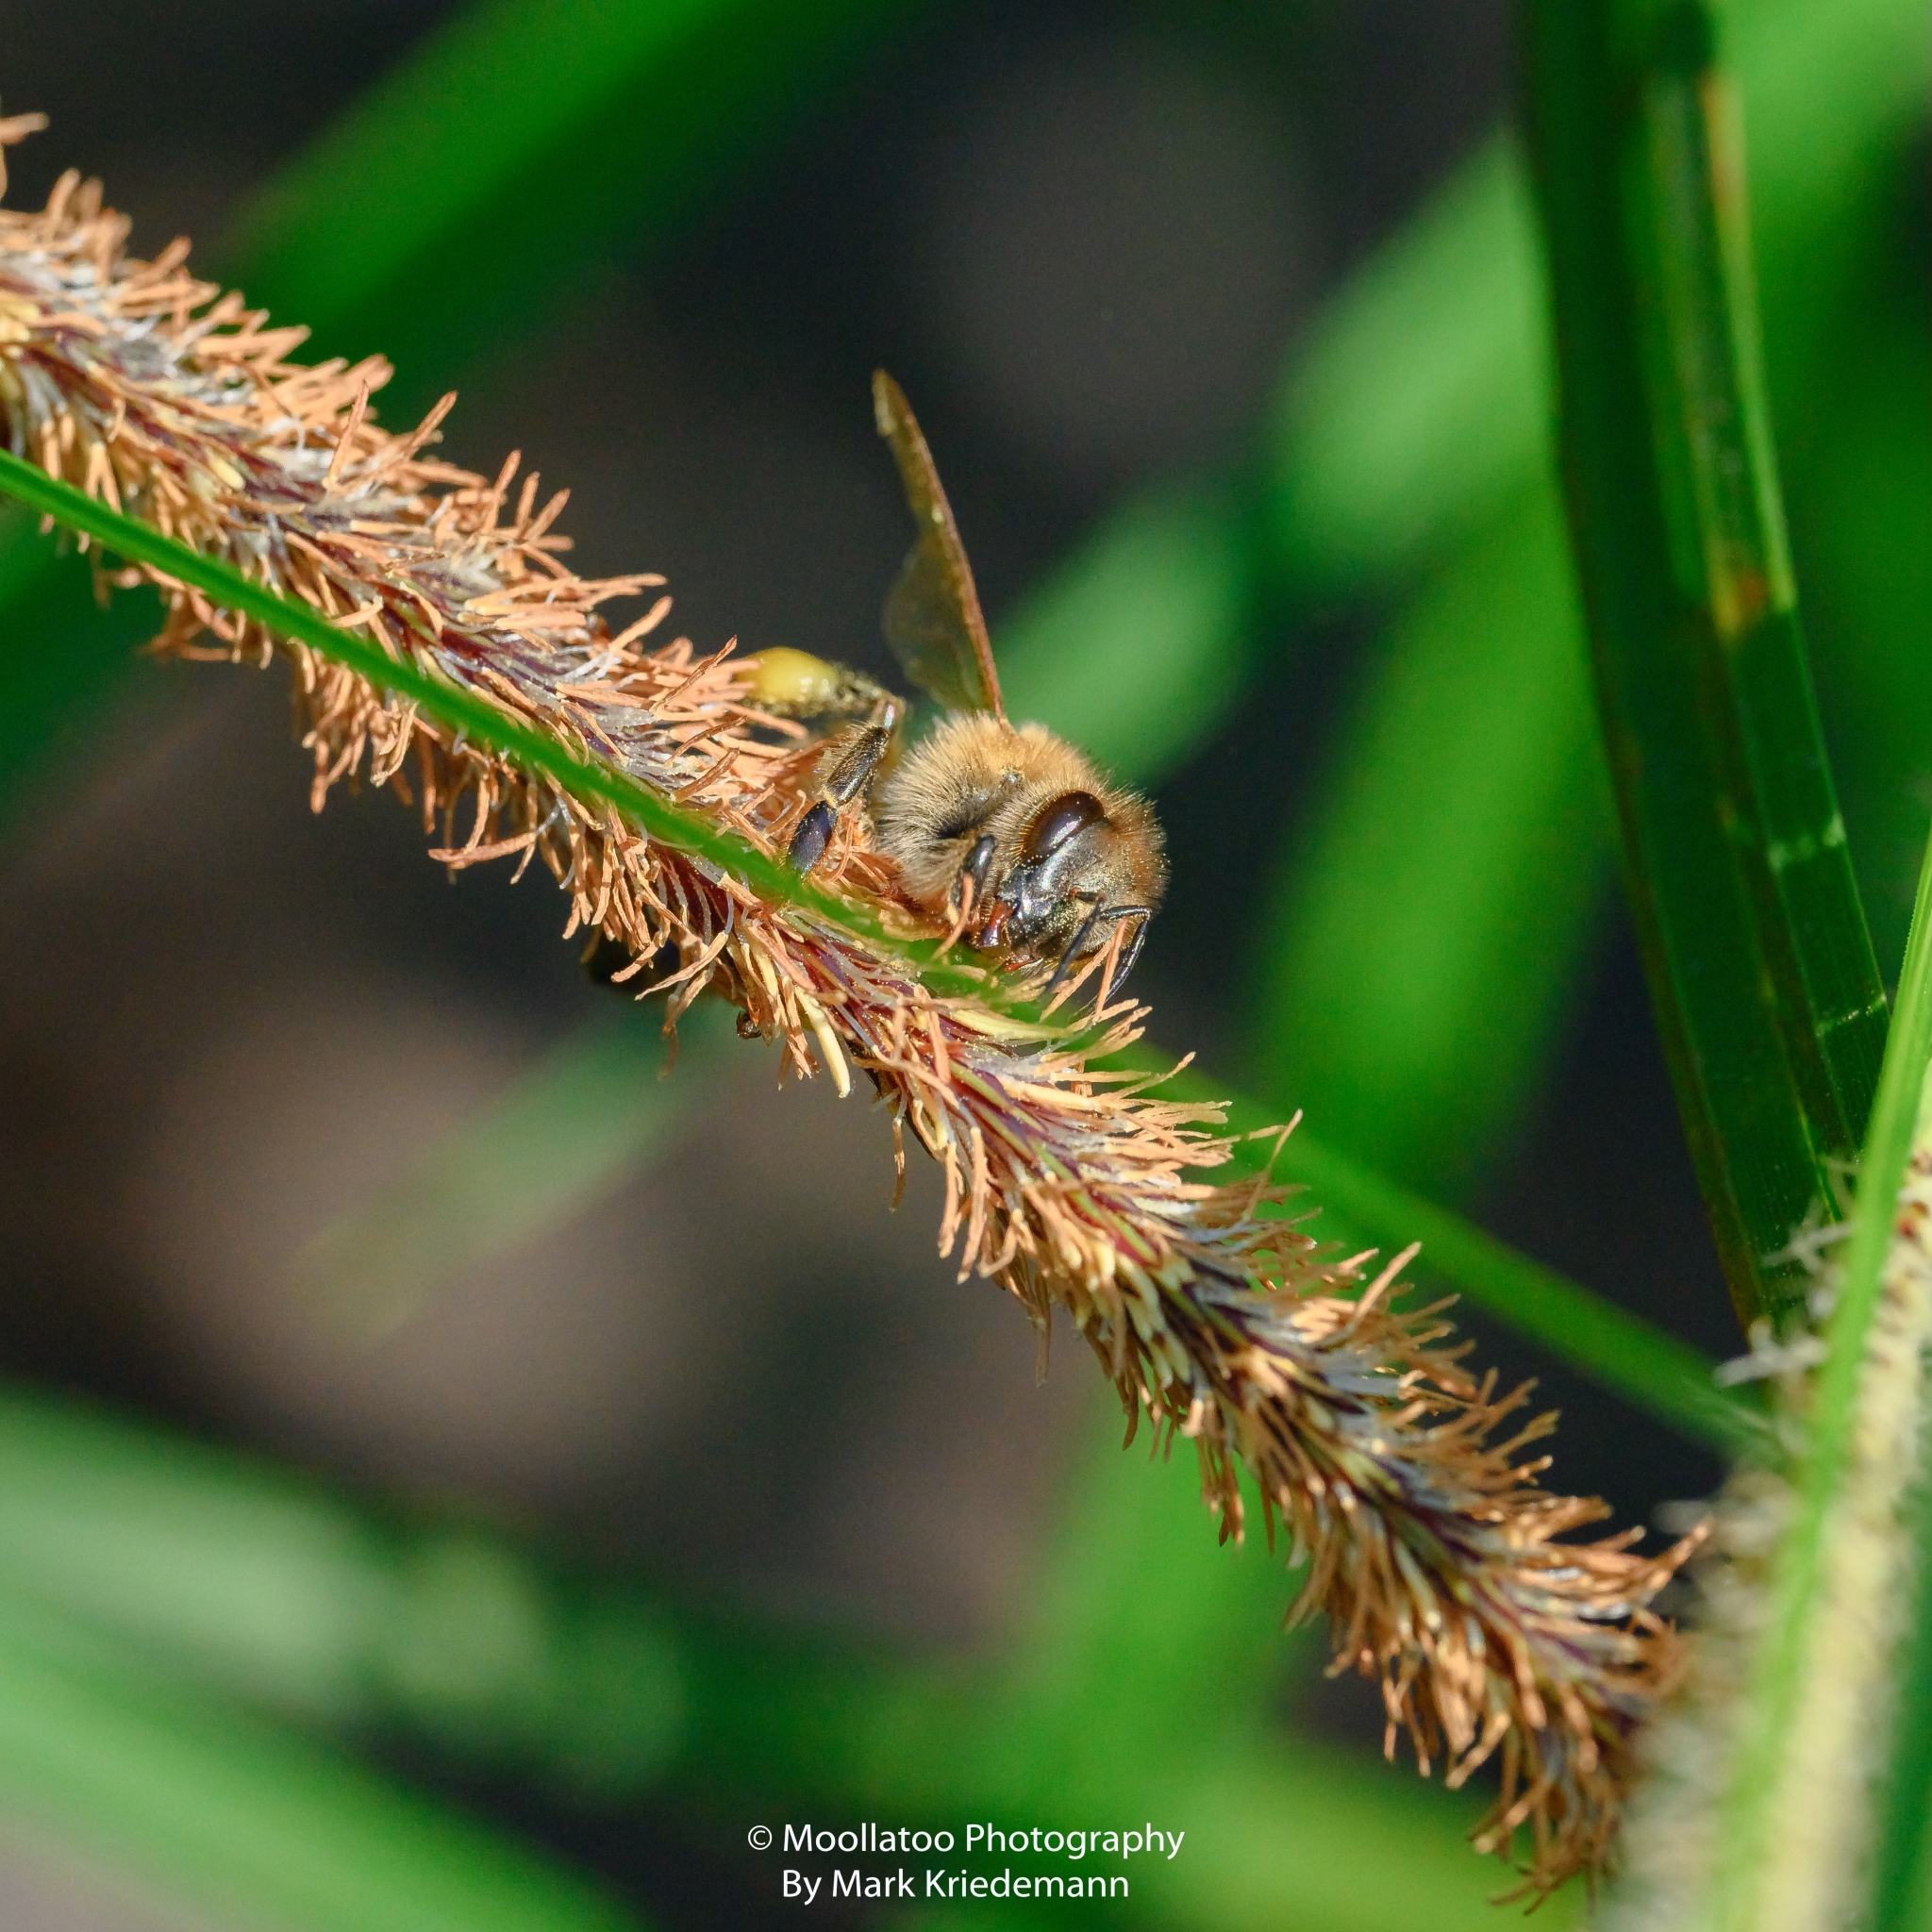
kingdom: Animalia
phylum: Arthropoda
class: Insecta
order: Hymenoptera
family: Apidae
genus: Apis
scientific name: Apis mellifera
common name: Honey bee
